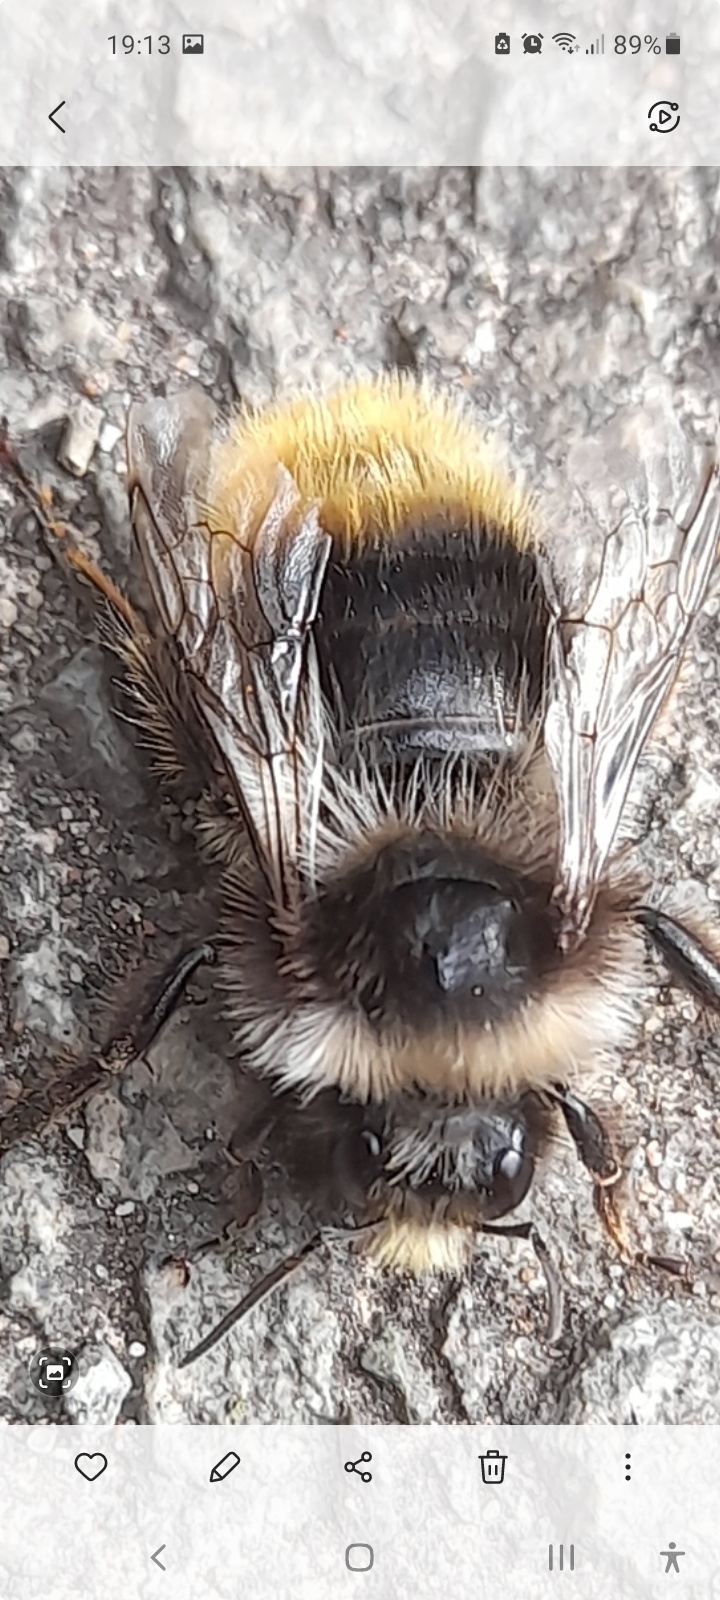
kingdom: Animalia
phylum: Arthropoda
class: Insecta
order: Hymenoptera
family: Apidae
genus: Bombus
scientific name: Bombus lapidarius
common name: Large red-tailed humble-bee
